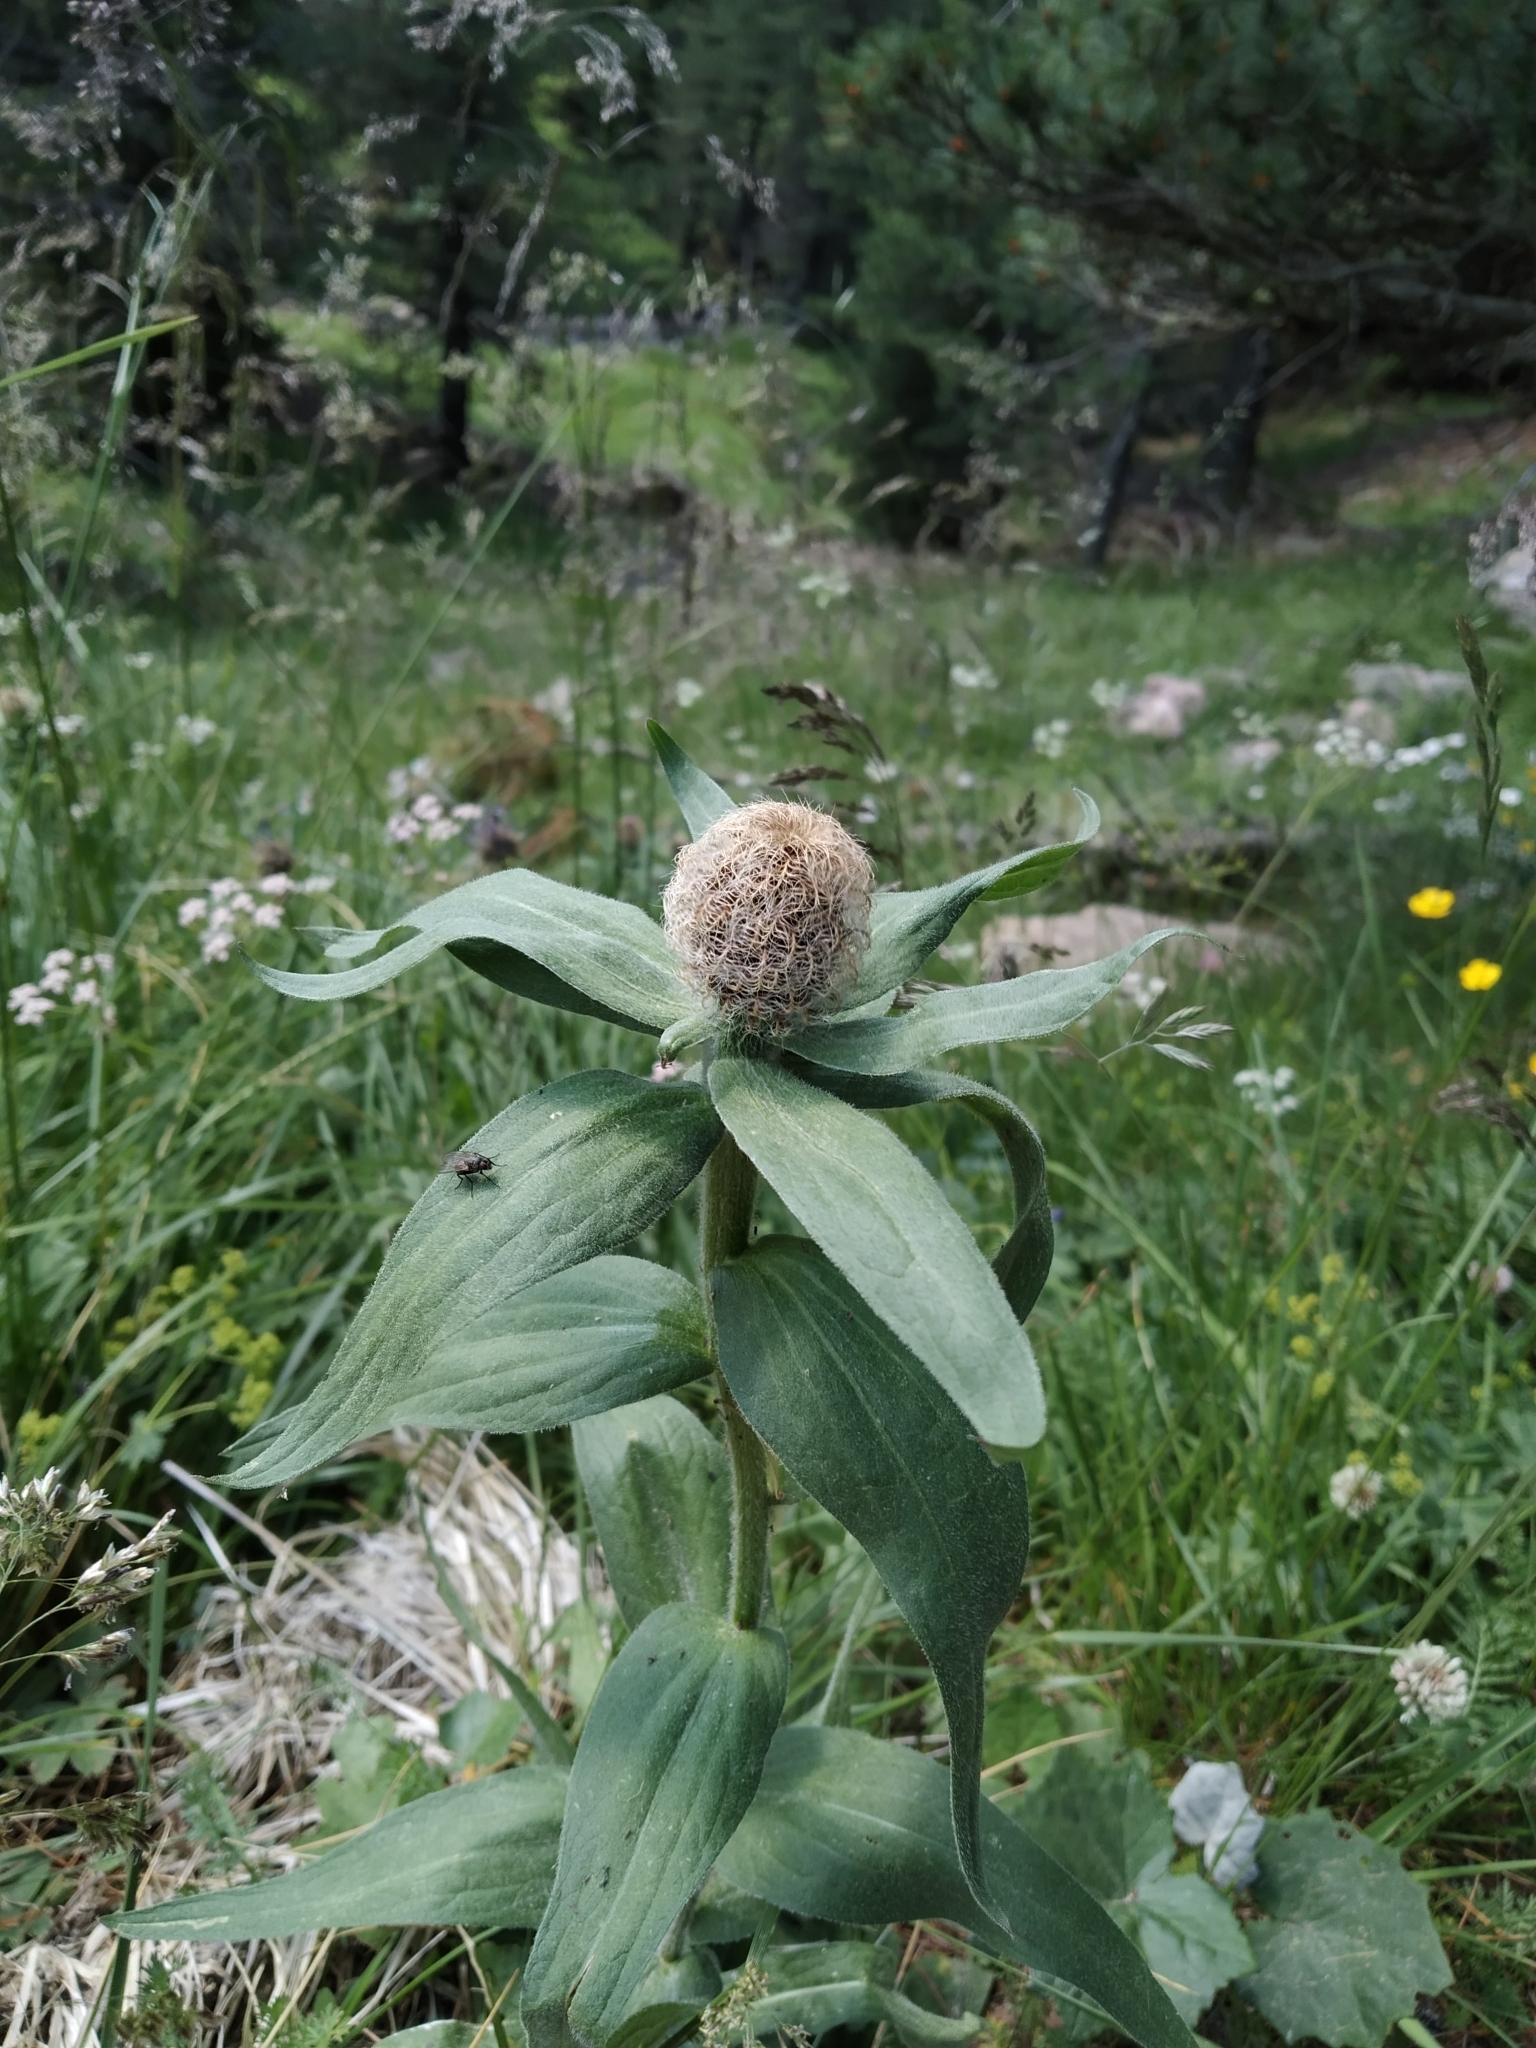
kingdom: Plantae
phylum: Tracheophyta
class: Magnoliopsida
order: Asterales
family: Asteraceae
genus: Centaurea
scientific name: Centaurea nervosa
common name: Singleflower knapweed
